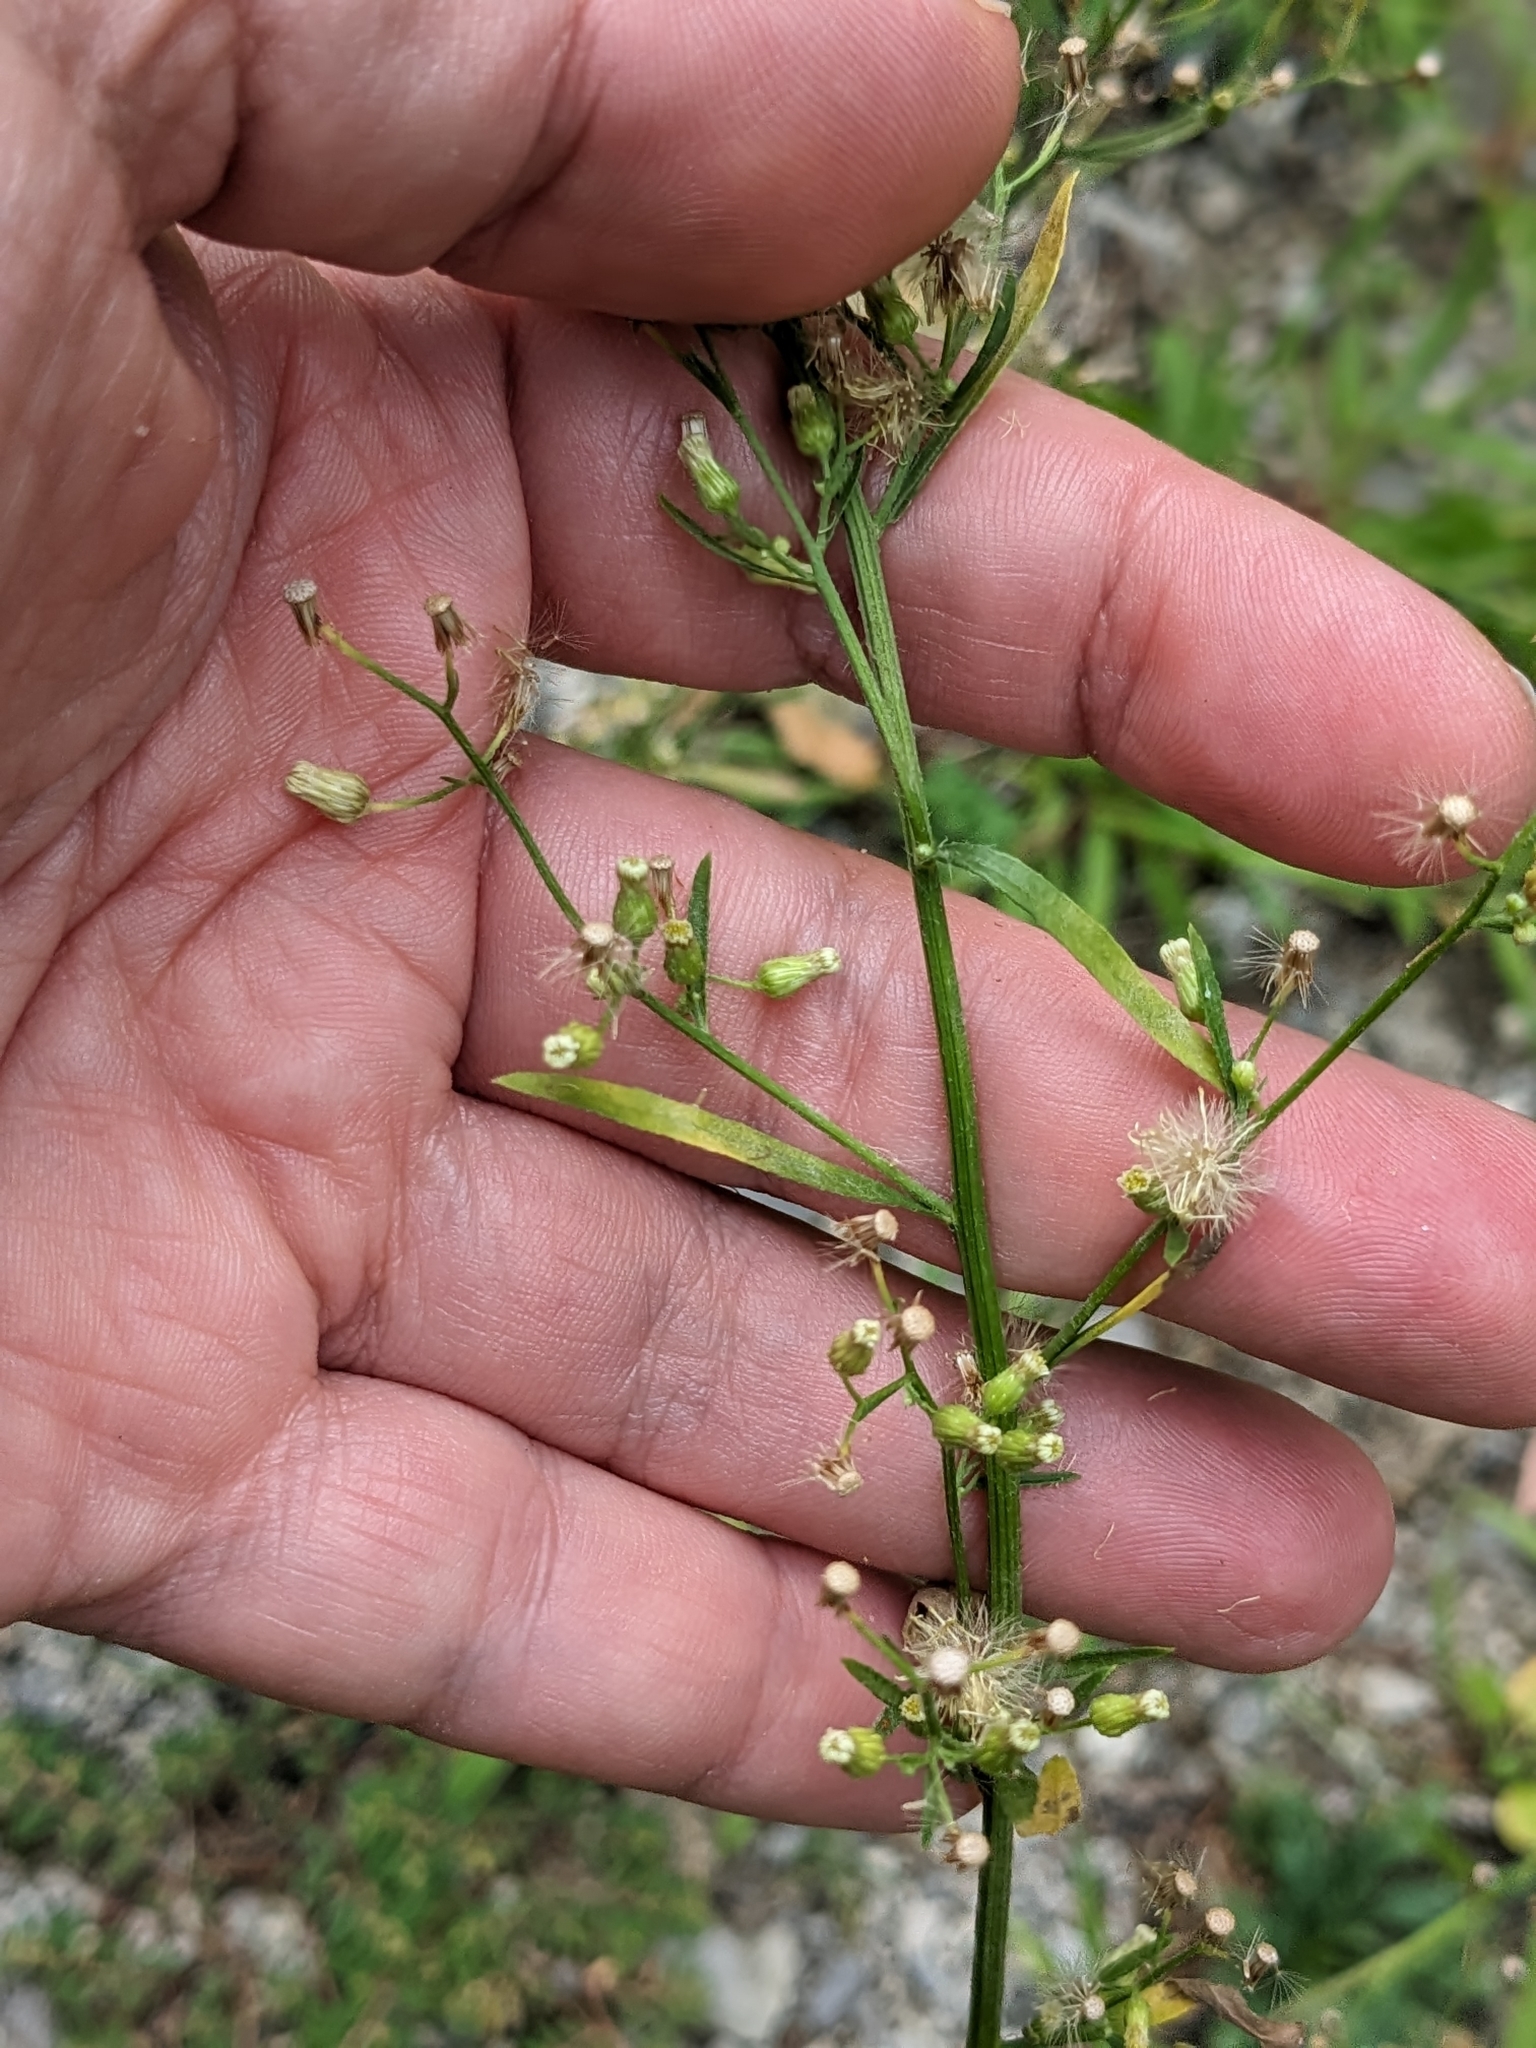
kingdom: Plantae
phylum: Tracheophyta
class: Magnoliopsida
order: Asterales
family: Asteraceae
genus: Erigeron
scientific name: Erigeron canadensis
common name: Canadian fleabane
